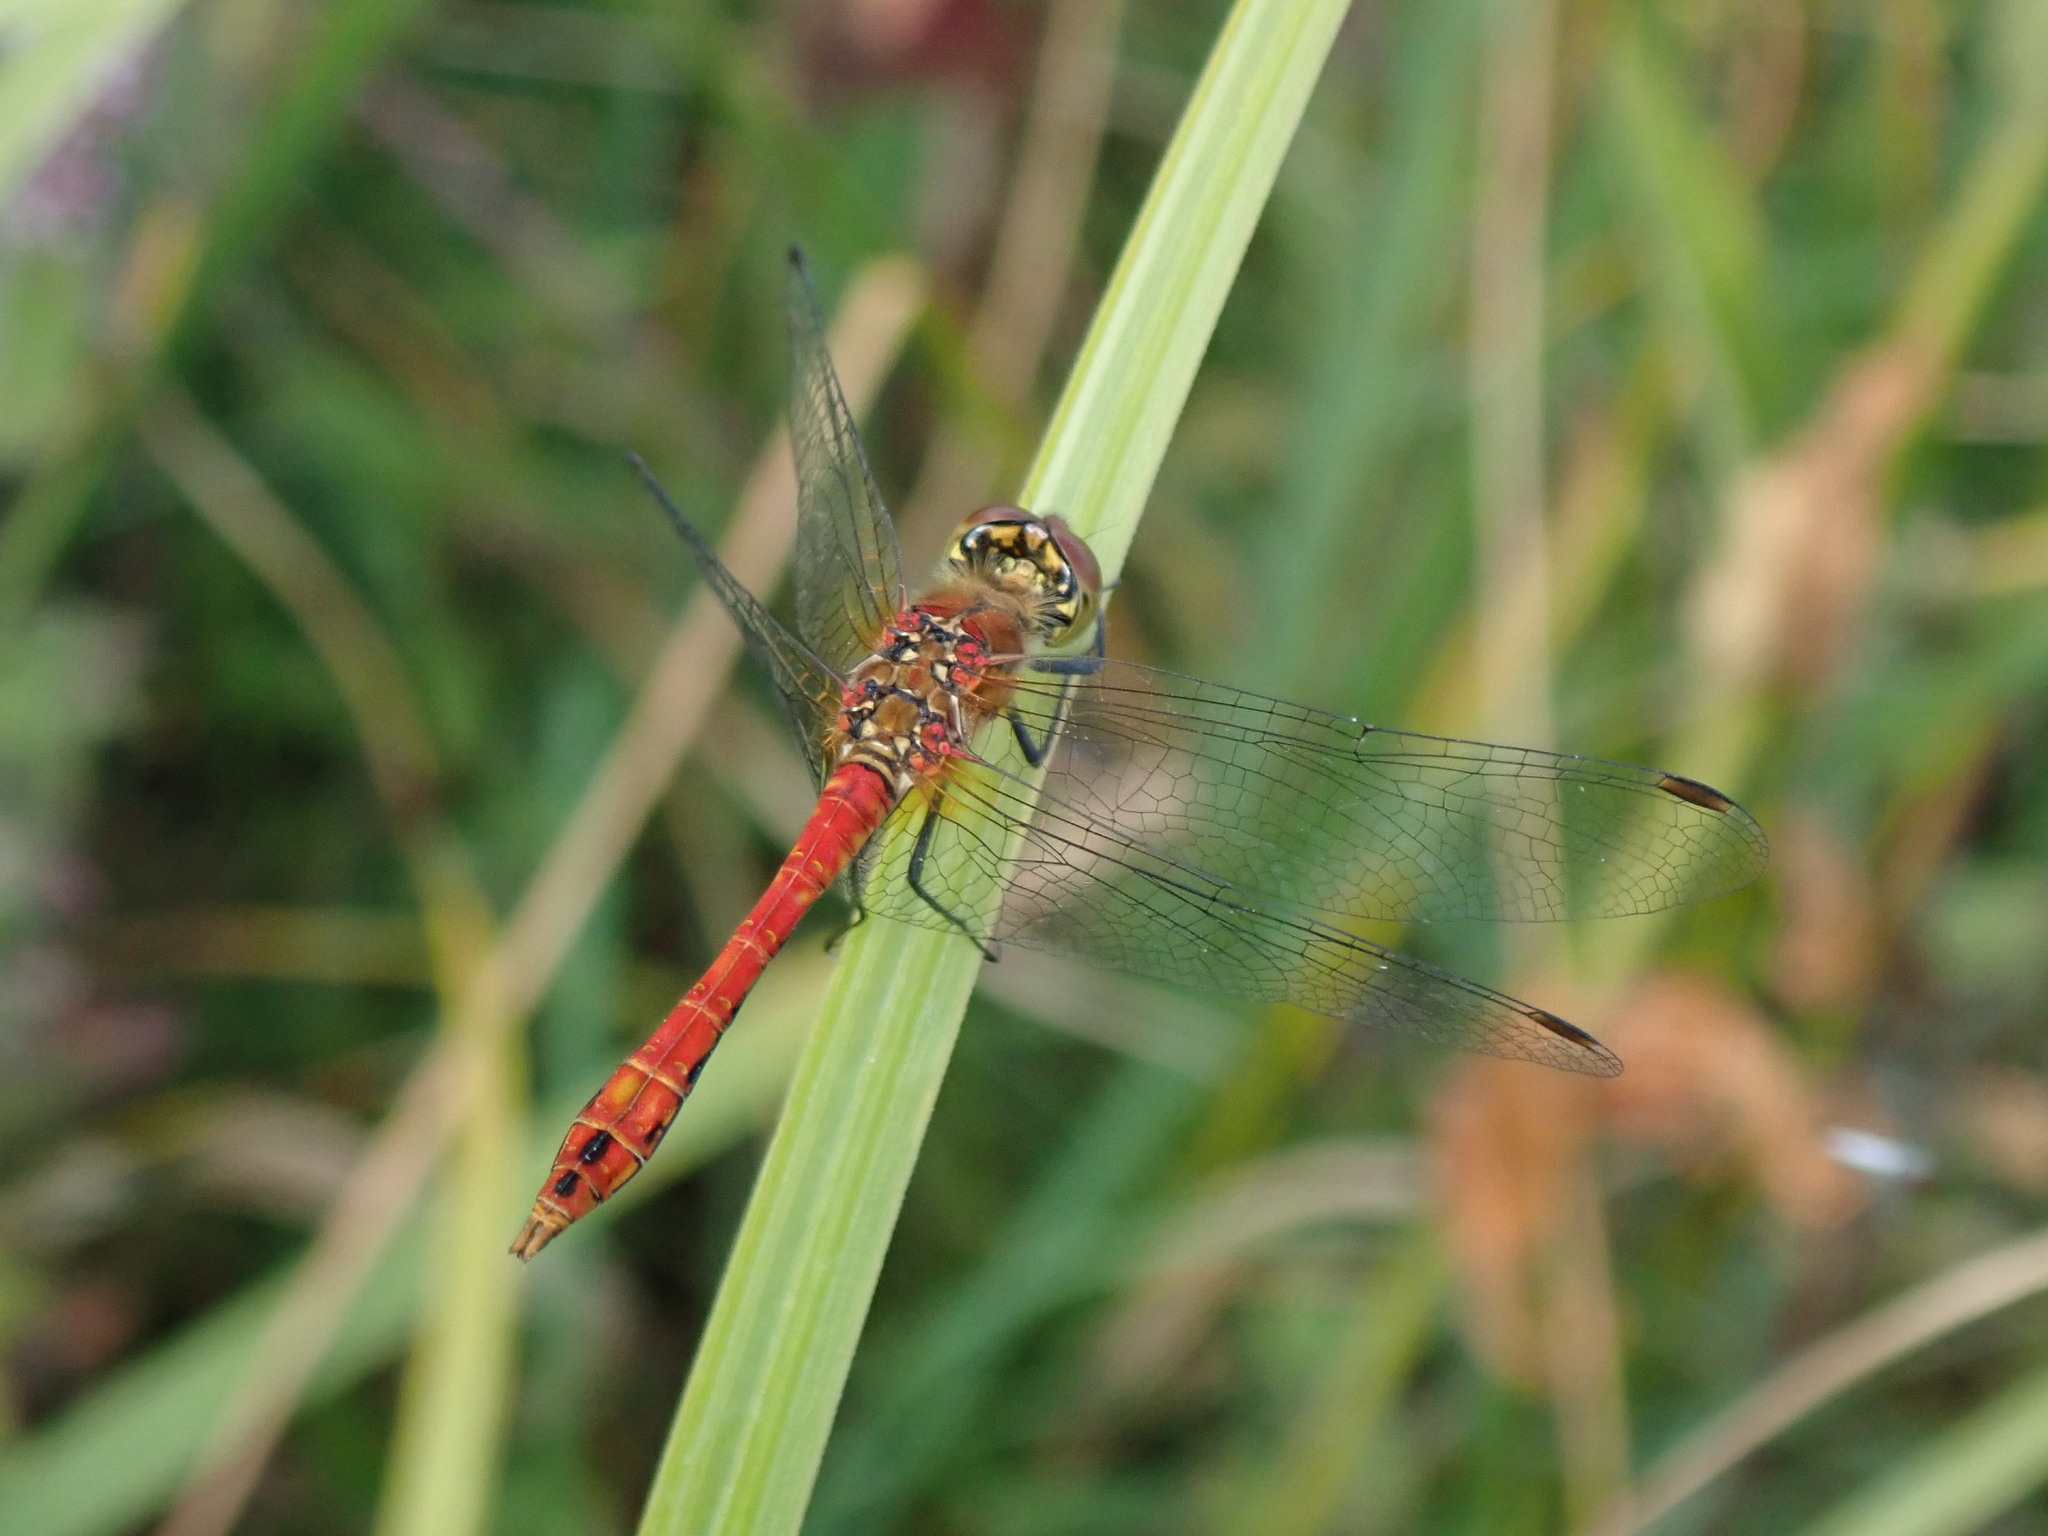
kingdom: Animalia
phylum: Arthropoda
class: Insecta
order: Odonata
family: Libellulidae
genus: Sympetrum
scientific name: Sympetrum sanguineum
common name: Ruddy darter
